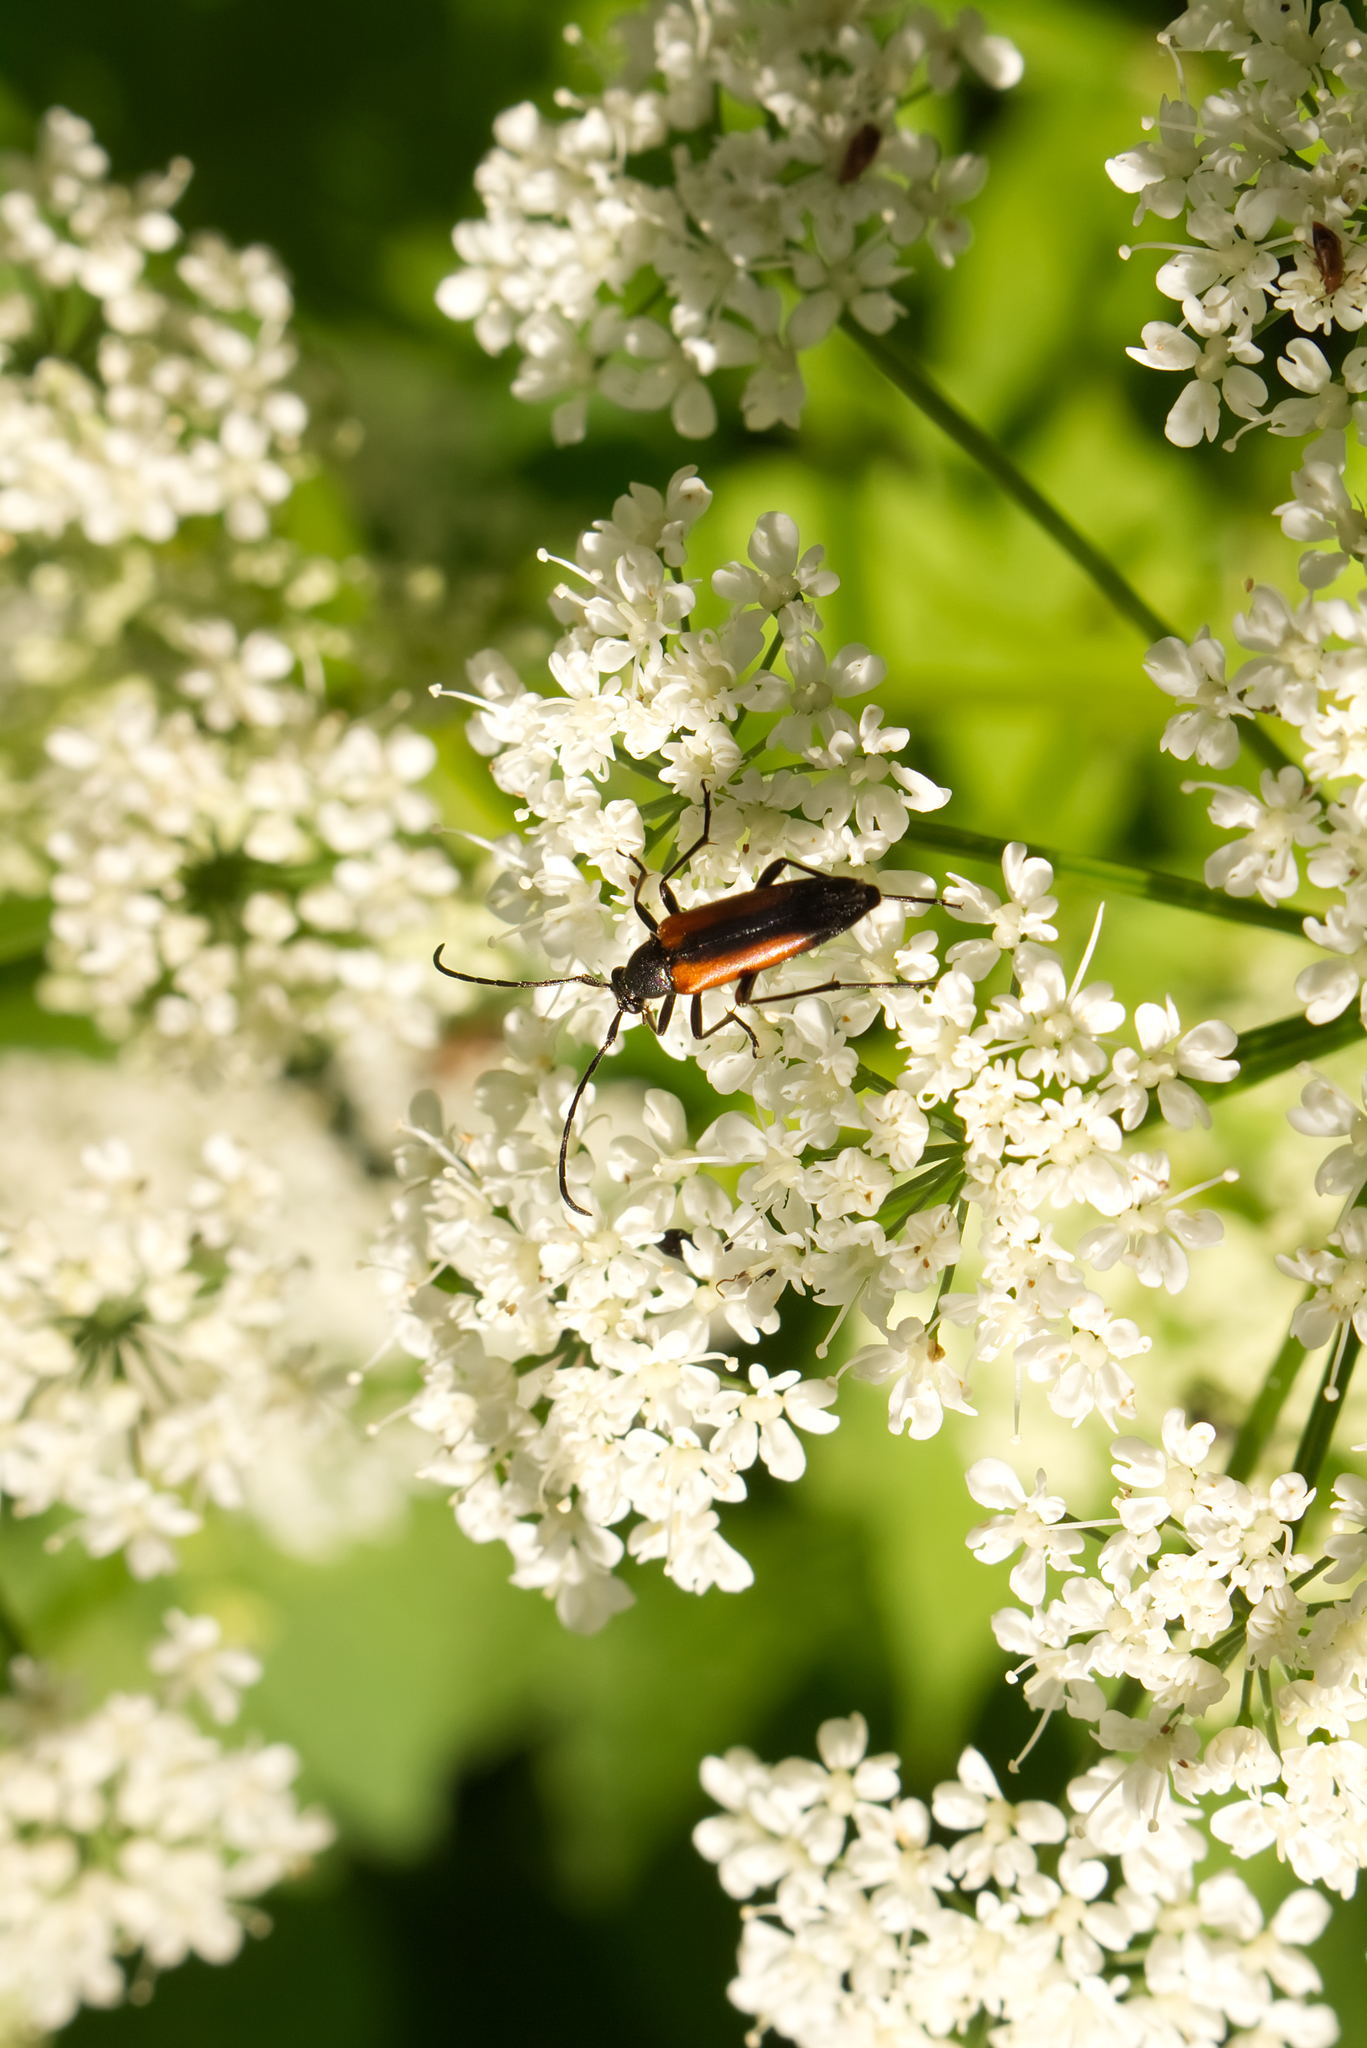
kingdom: Animalia
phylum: Arthropoda
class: Insecta
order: Coleoptera
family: Cerambycidae
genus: Stenurella
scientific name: Stenurella melanura
